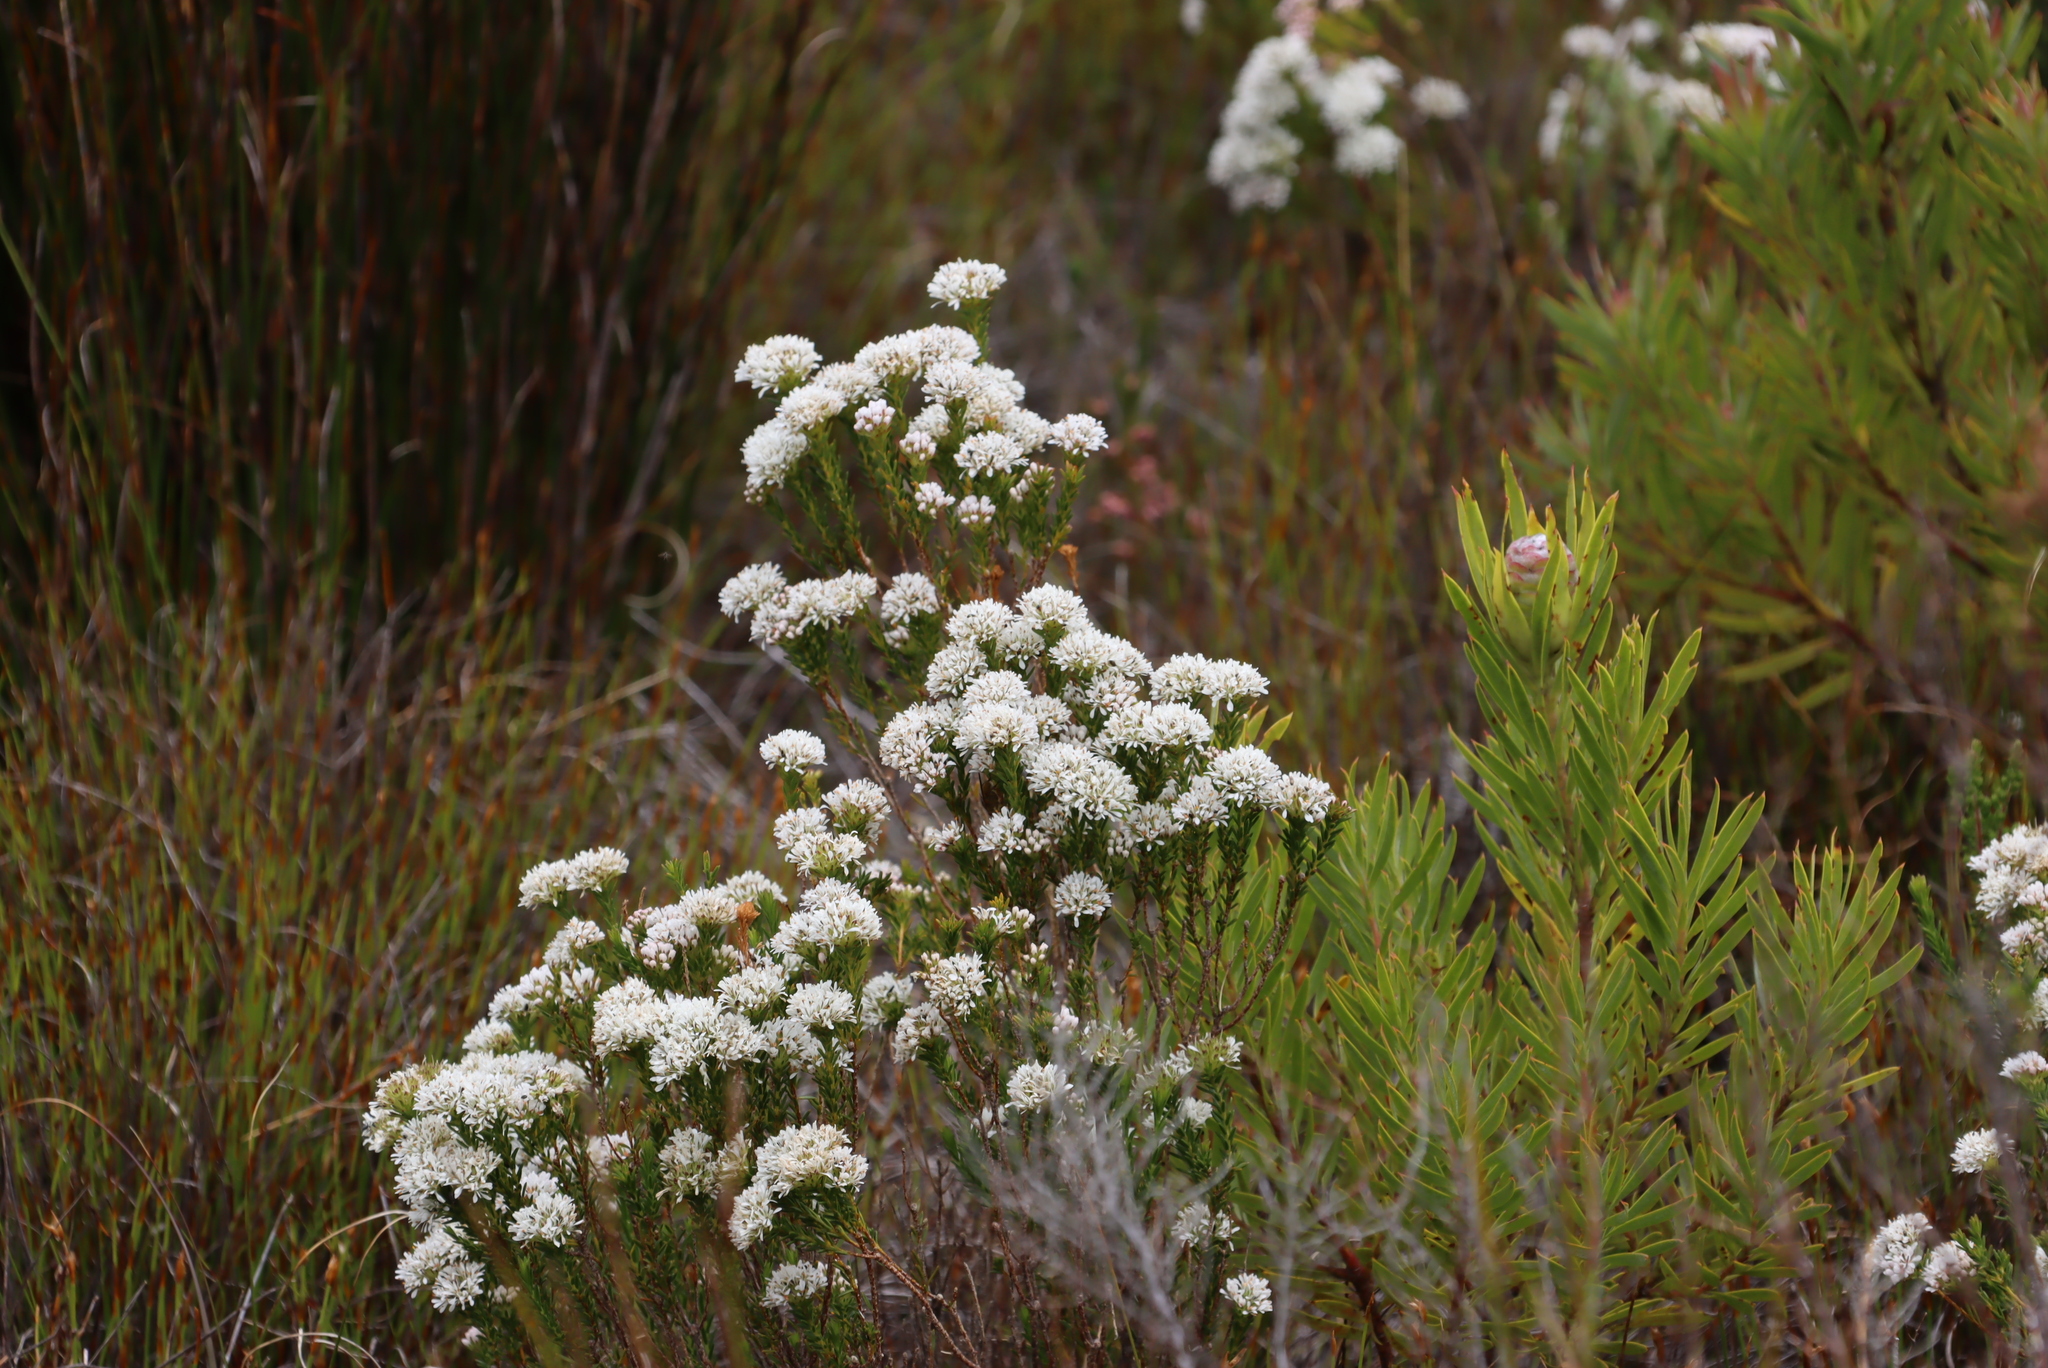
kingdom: Plantae
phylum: Tracheophyta
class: Magnoliopsida
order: Sapindales
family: Rutaceae
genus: Agathosma
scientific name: Agathosma imbricata
